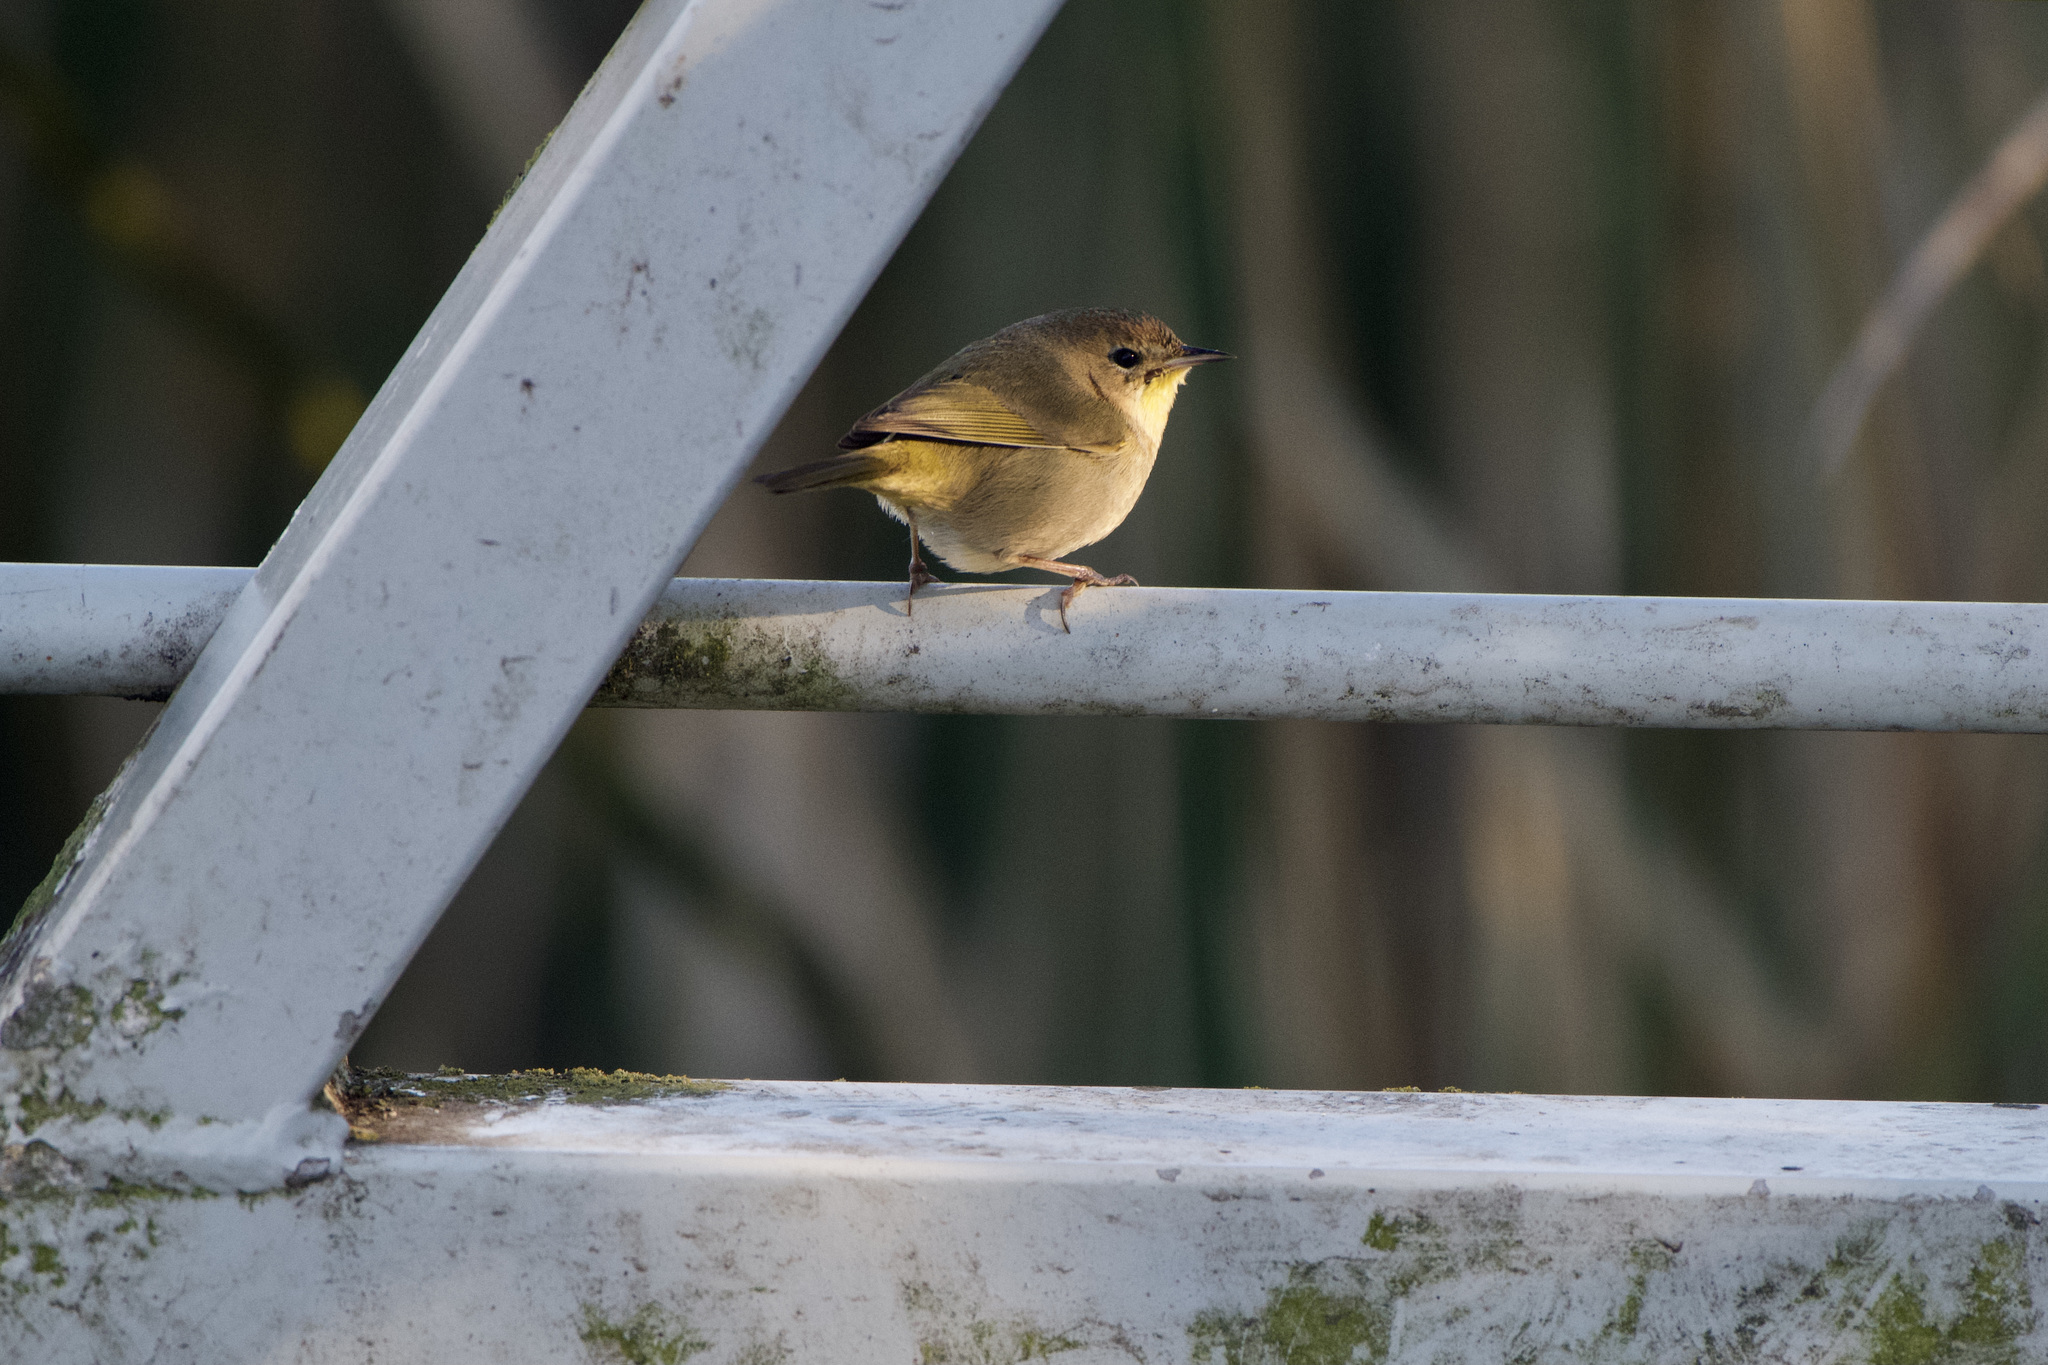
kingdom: Animalia
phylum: Chordata
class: Aves
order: Passeriformes
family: Parulidae
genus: Geothlypis
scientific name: Geothlypis trichas
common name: Common yellowthroat
